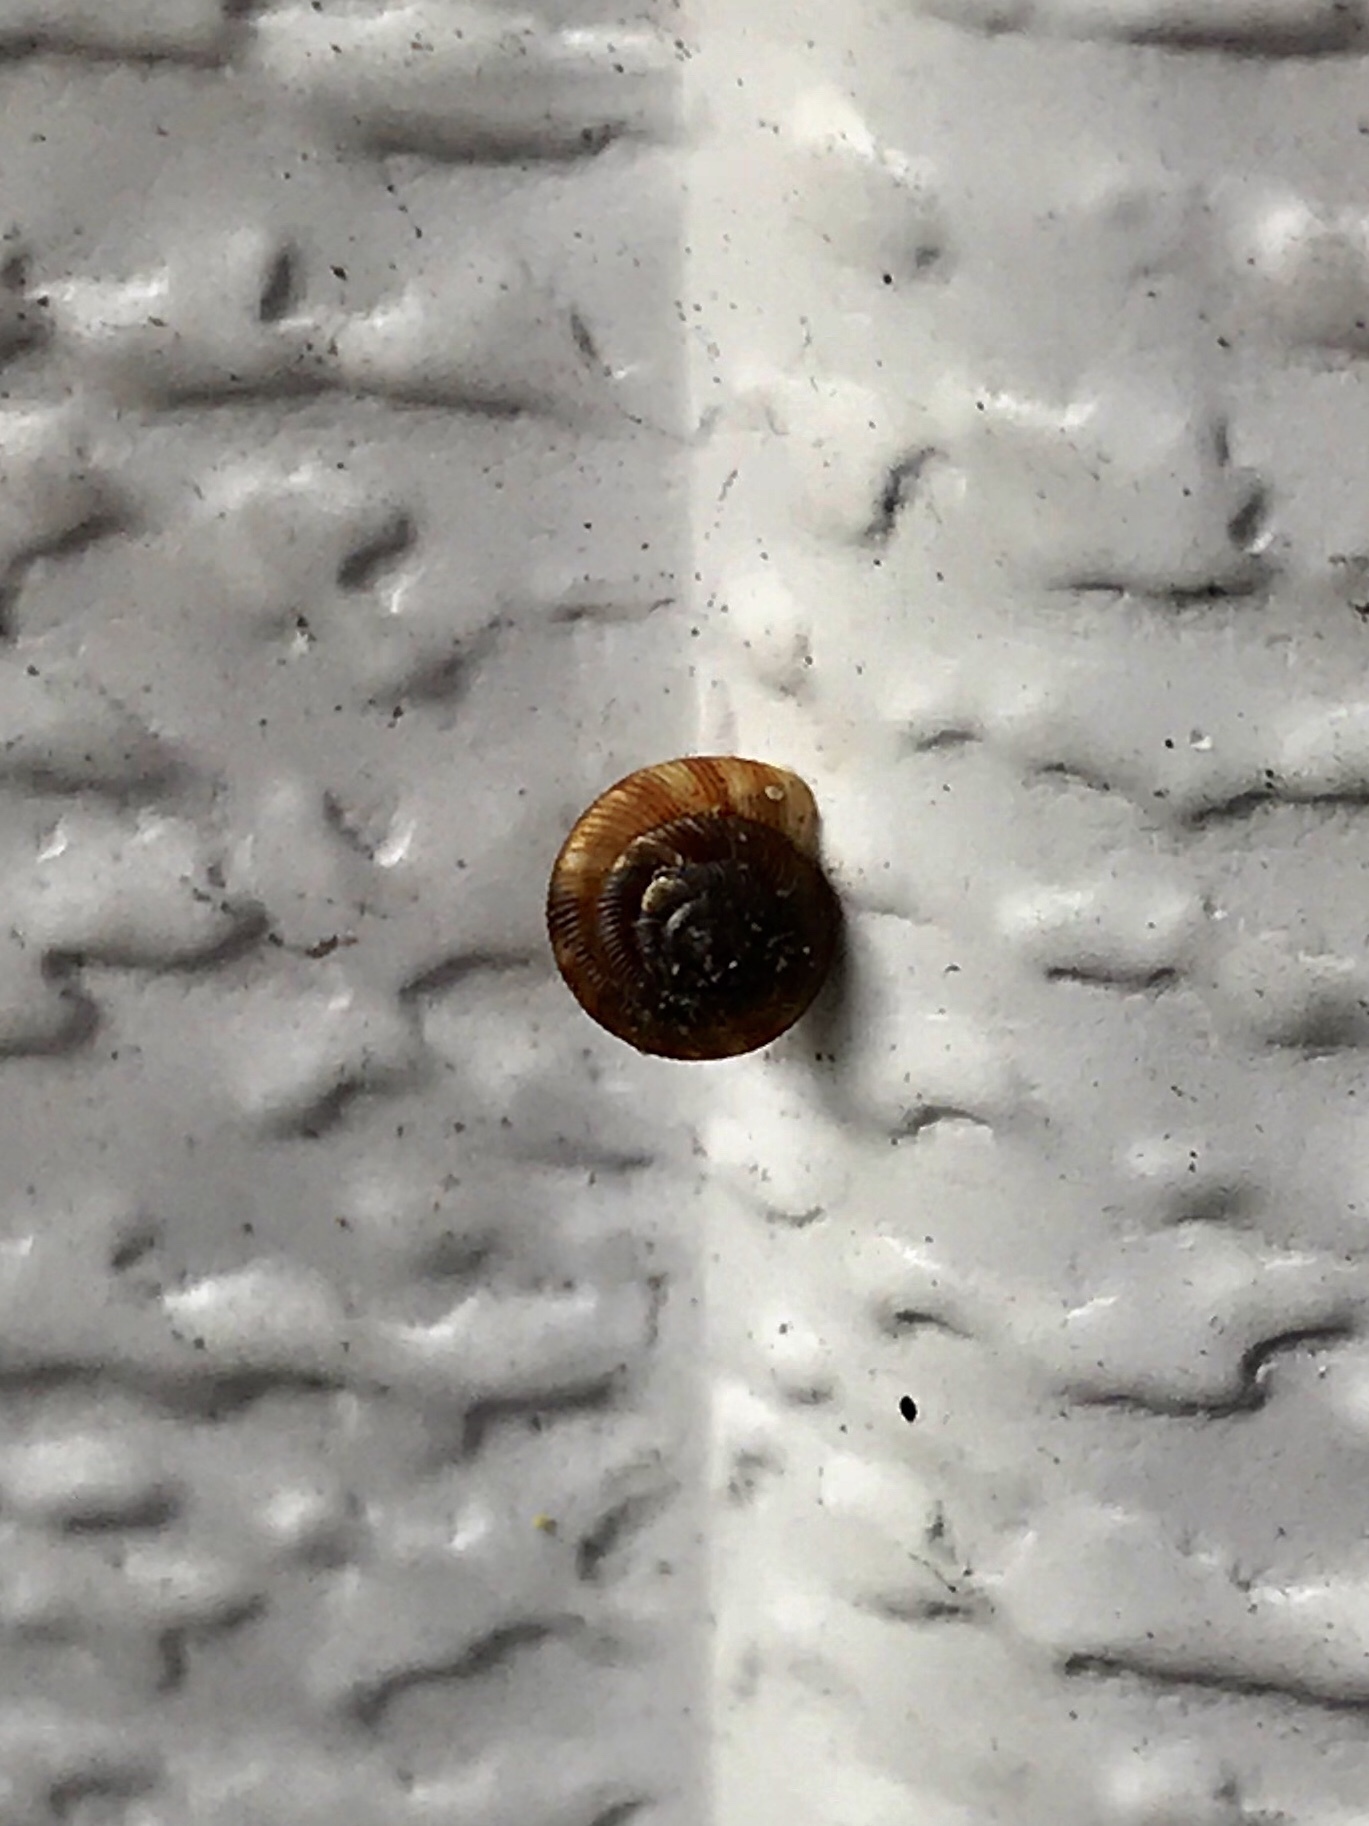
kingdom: Animalia
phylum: Mollusca
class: Gastropoda
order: Stylommatophora
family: Discidae
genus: Discus
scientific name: Discus rotundatus
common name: Rounded snail
